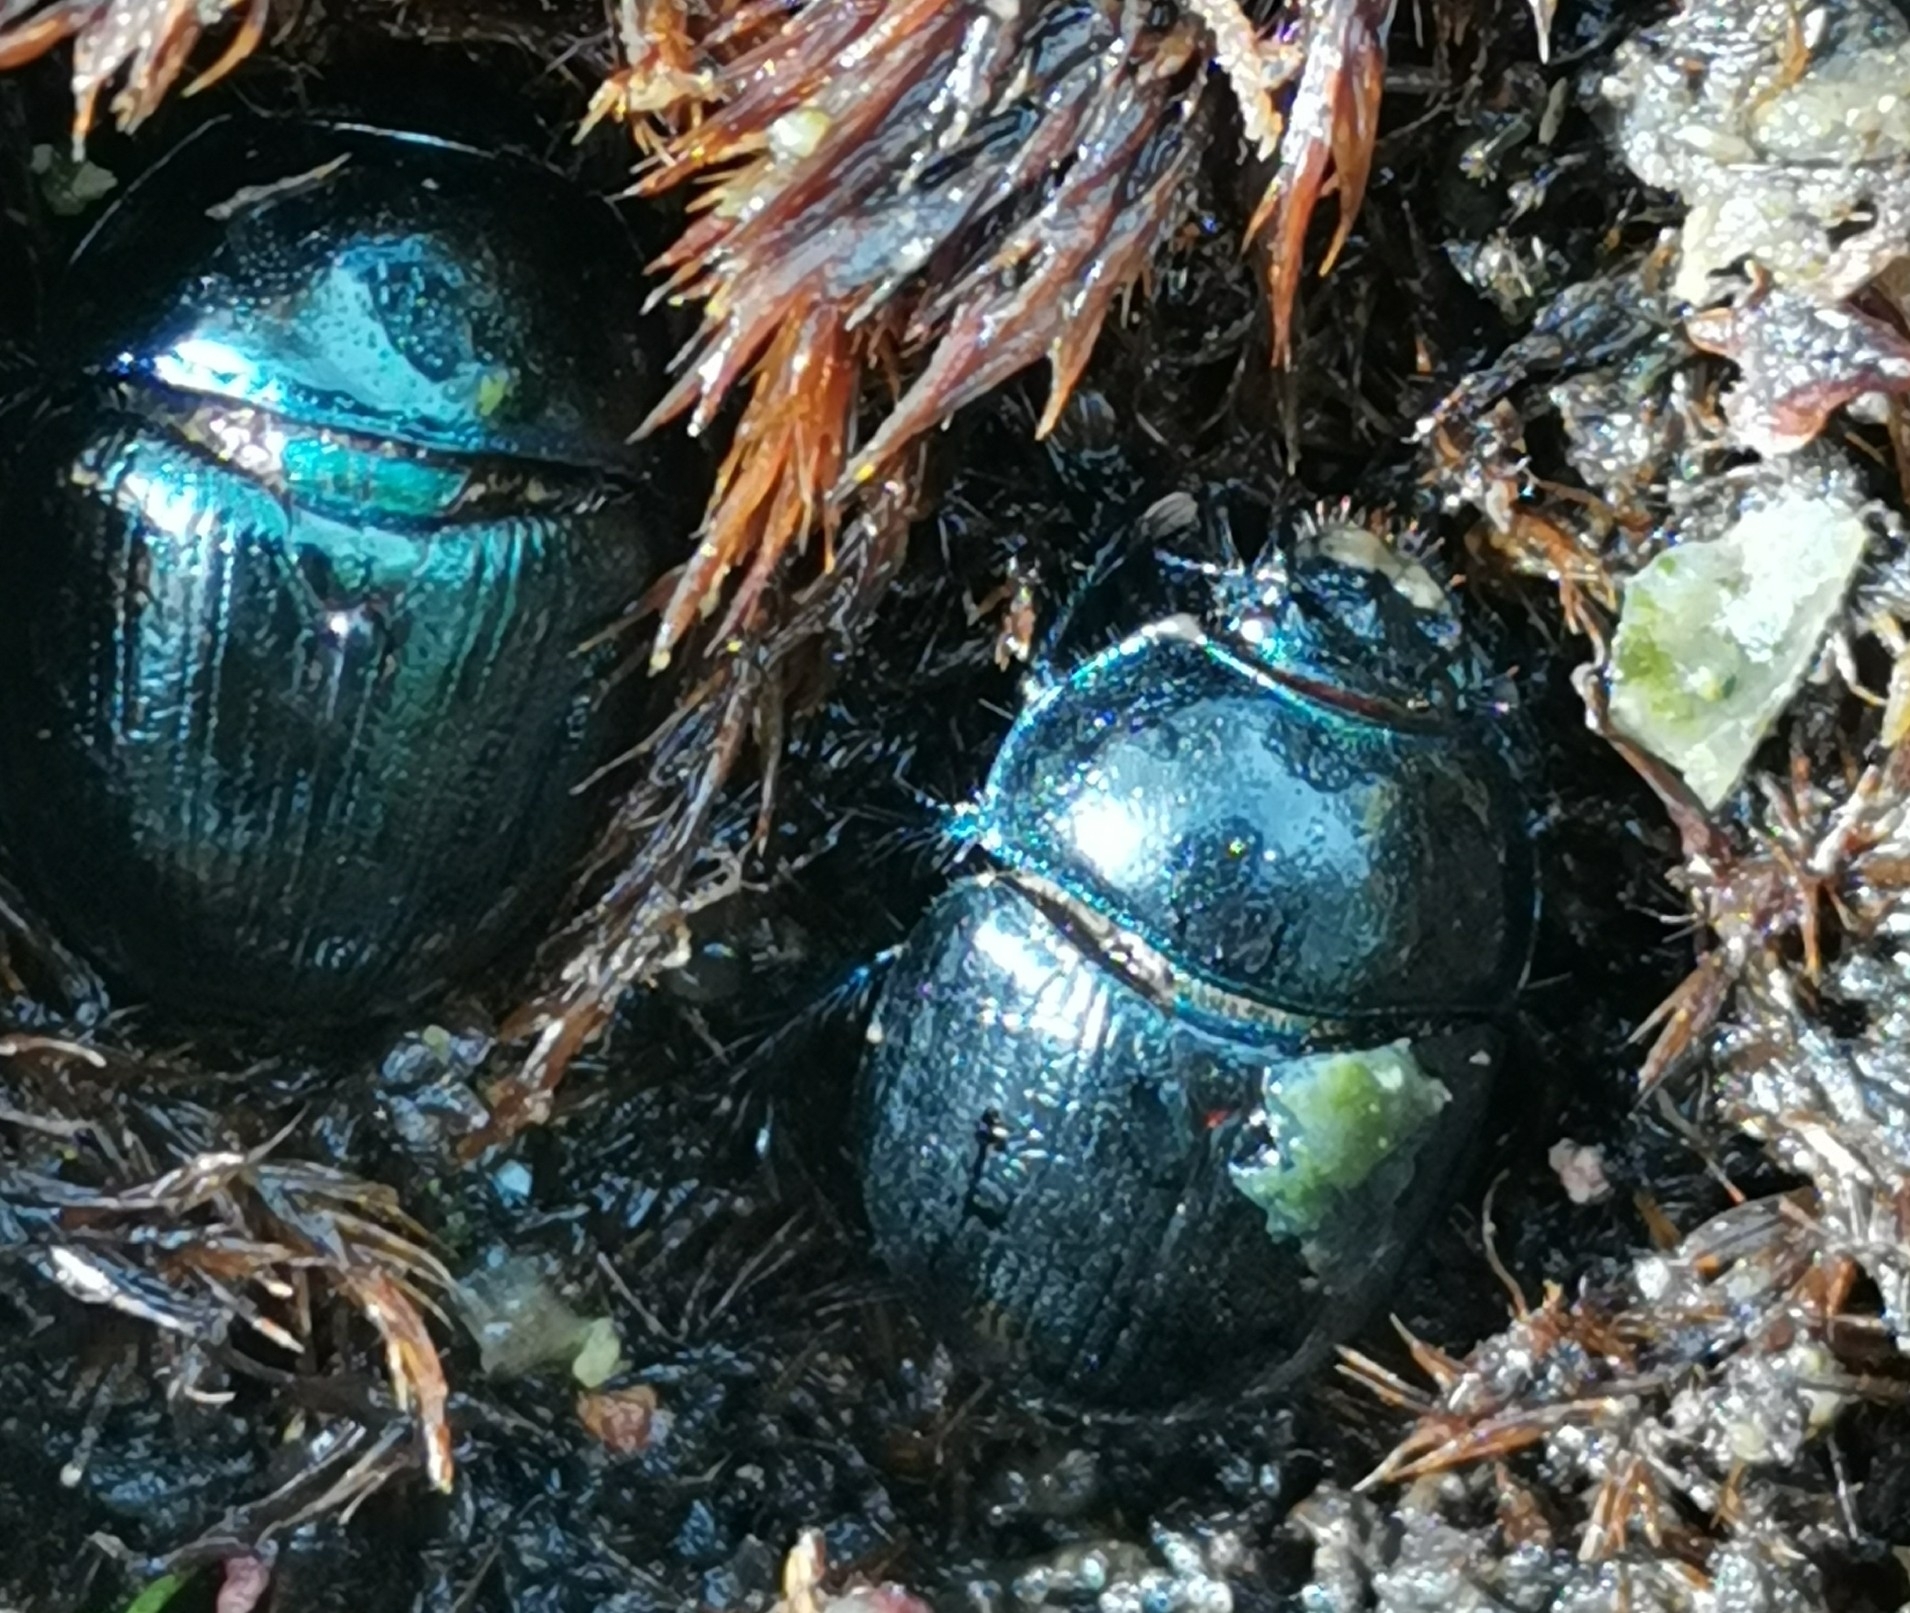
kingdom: Animalia
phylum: Arthropoda
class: Insecta
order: Coleoptera
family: Geotrupidae
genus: Anoplotrupes
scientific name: Anoplotrupes stercorosus
